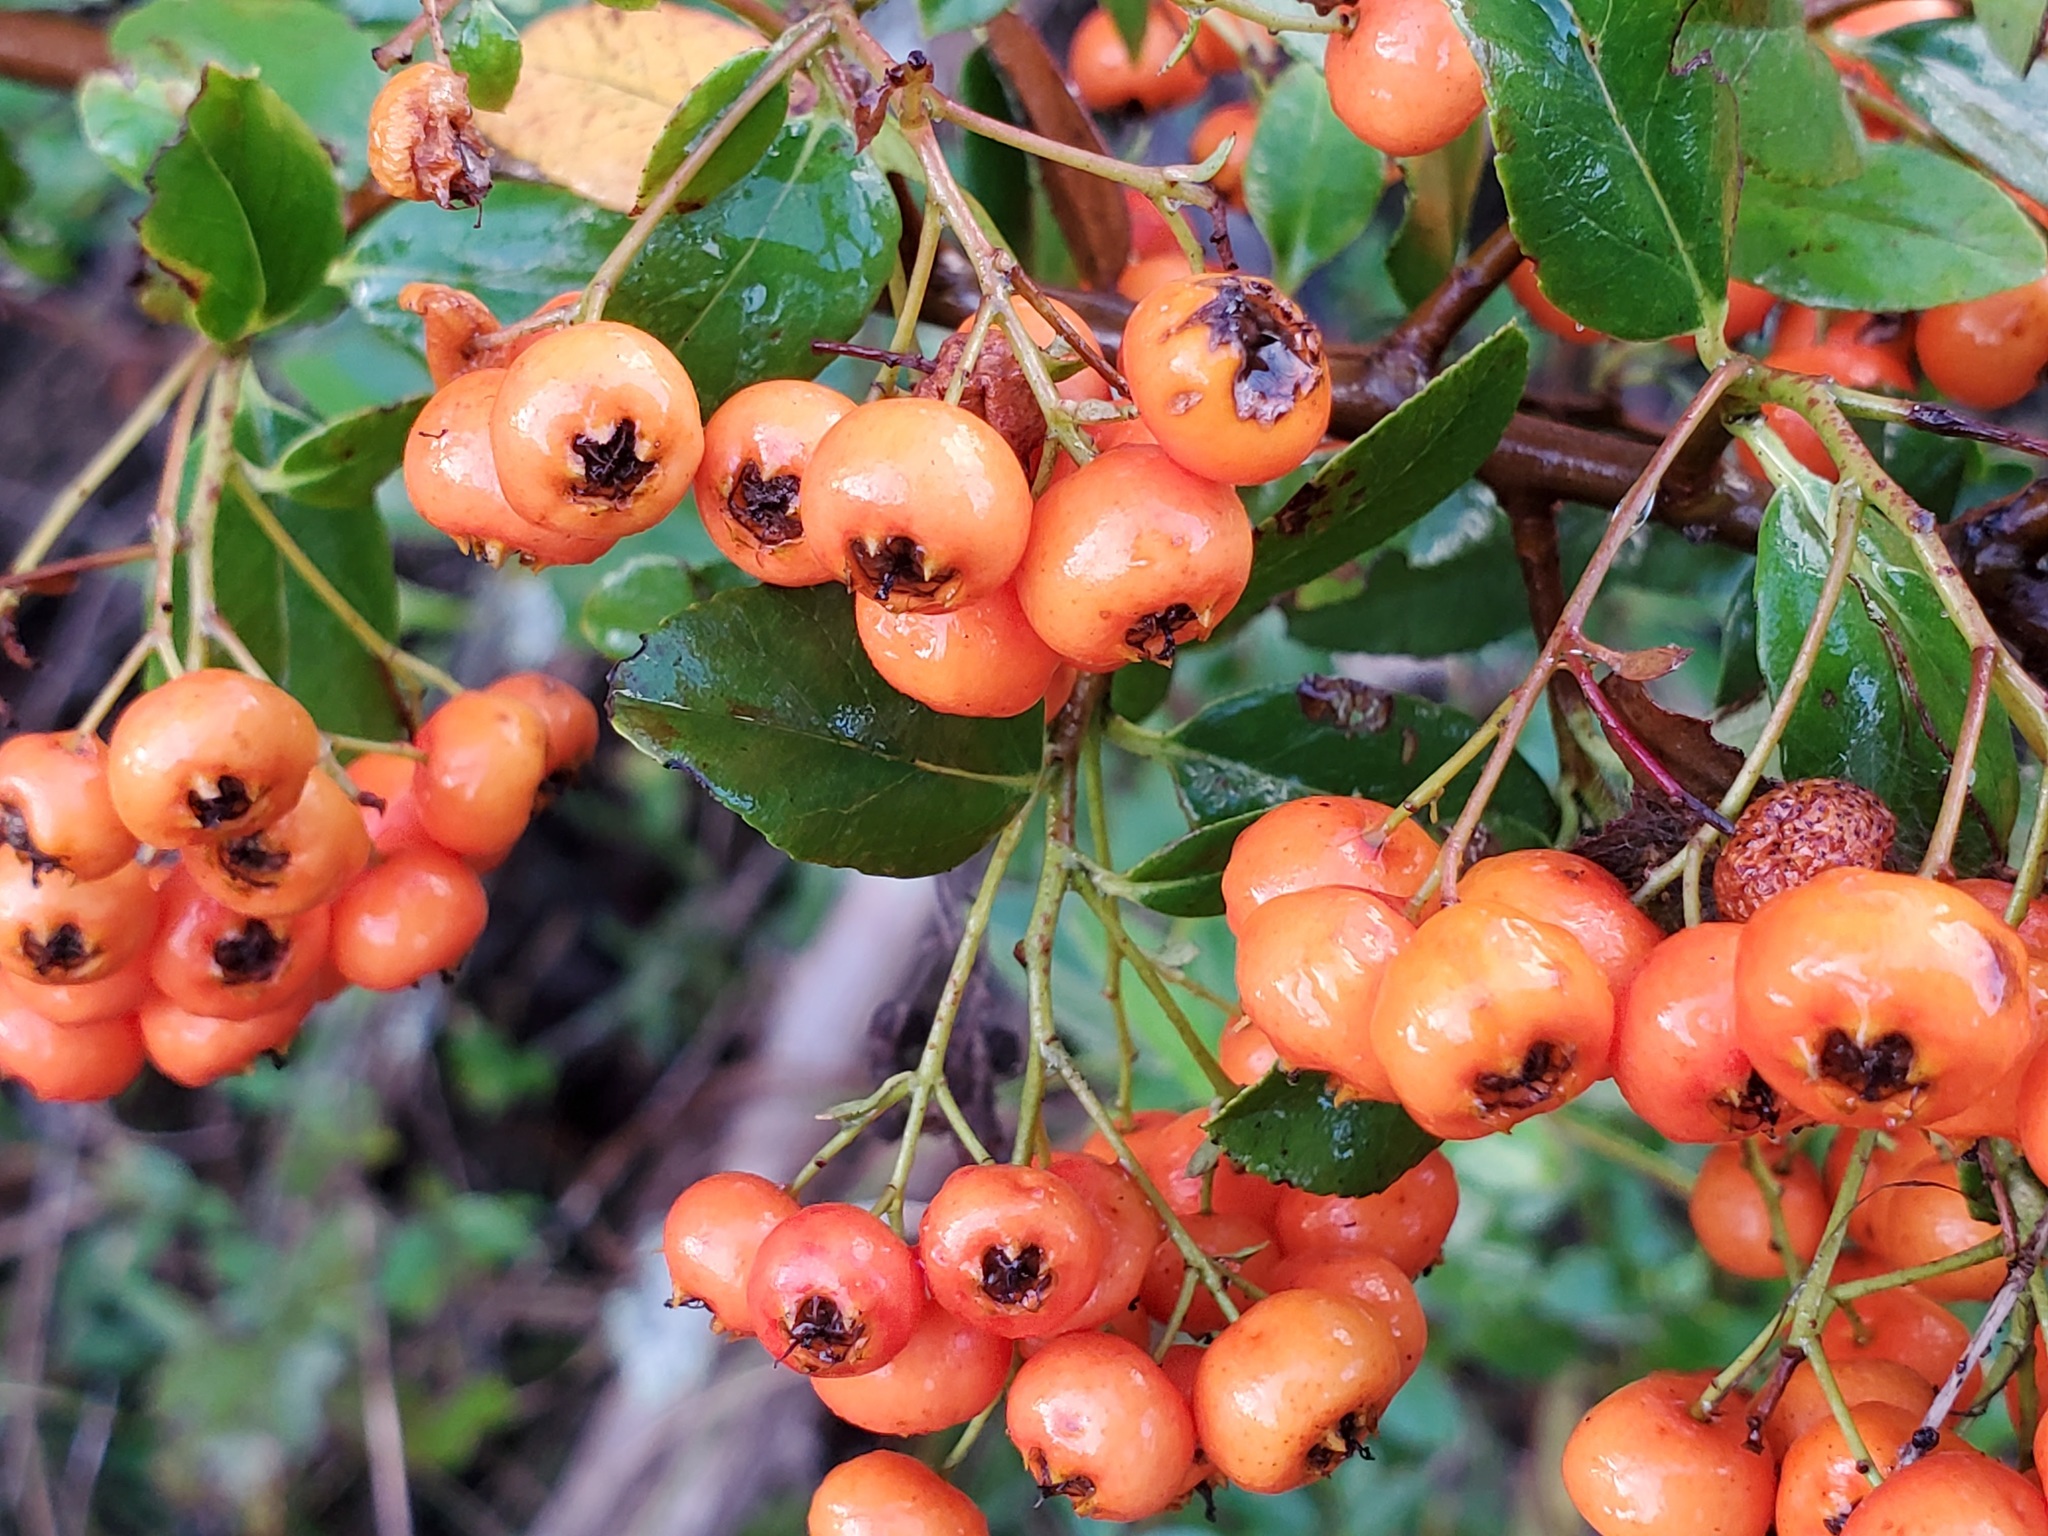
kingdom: Plantae
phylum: Tracheophyta
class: Magnoliopsida
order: Rosales
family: Rosaceae
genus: Pyracantha
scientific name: Pyracantha coccinea
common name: Firethorn
